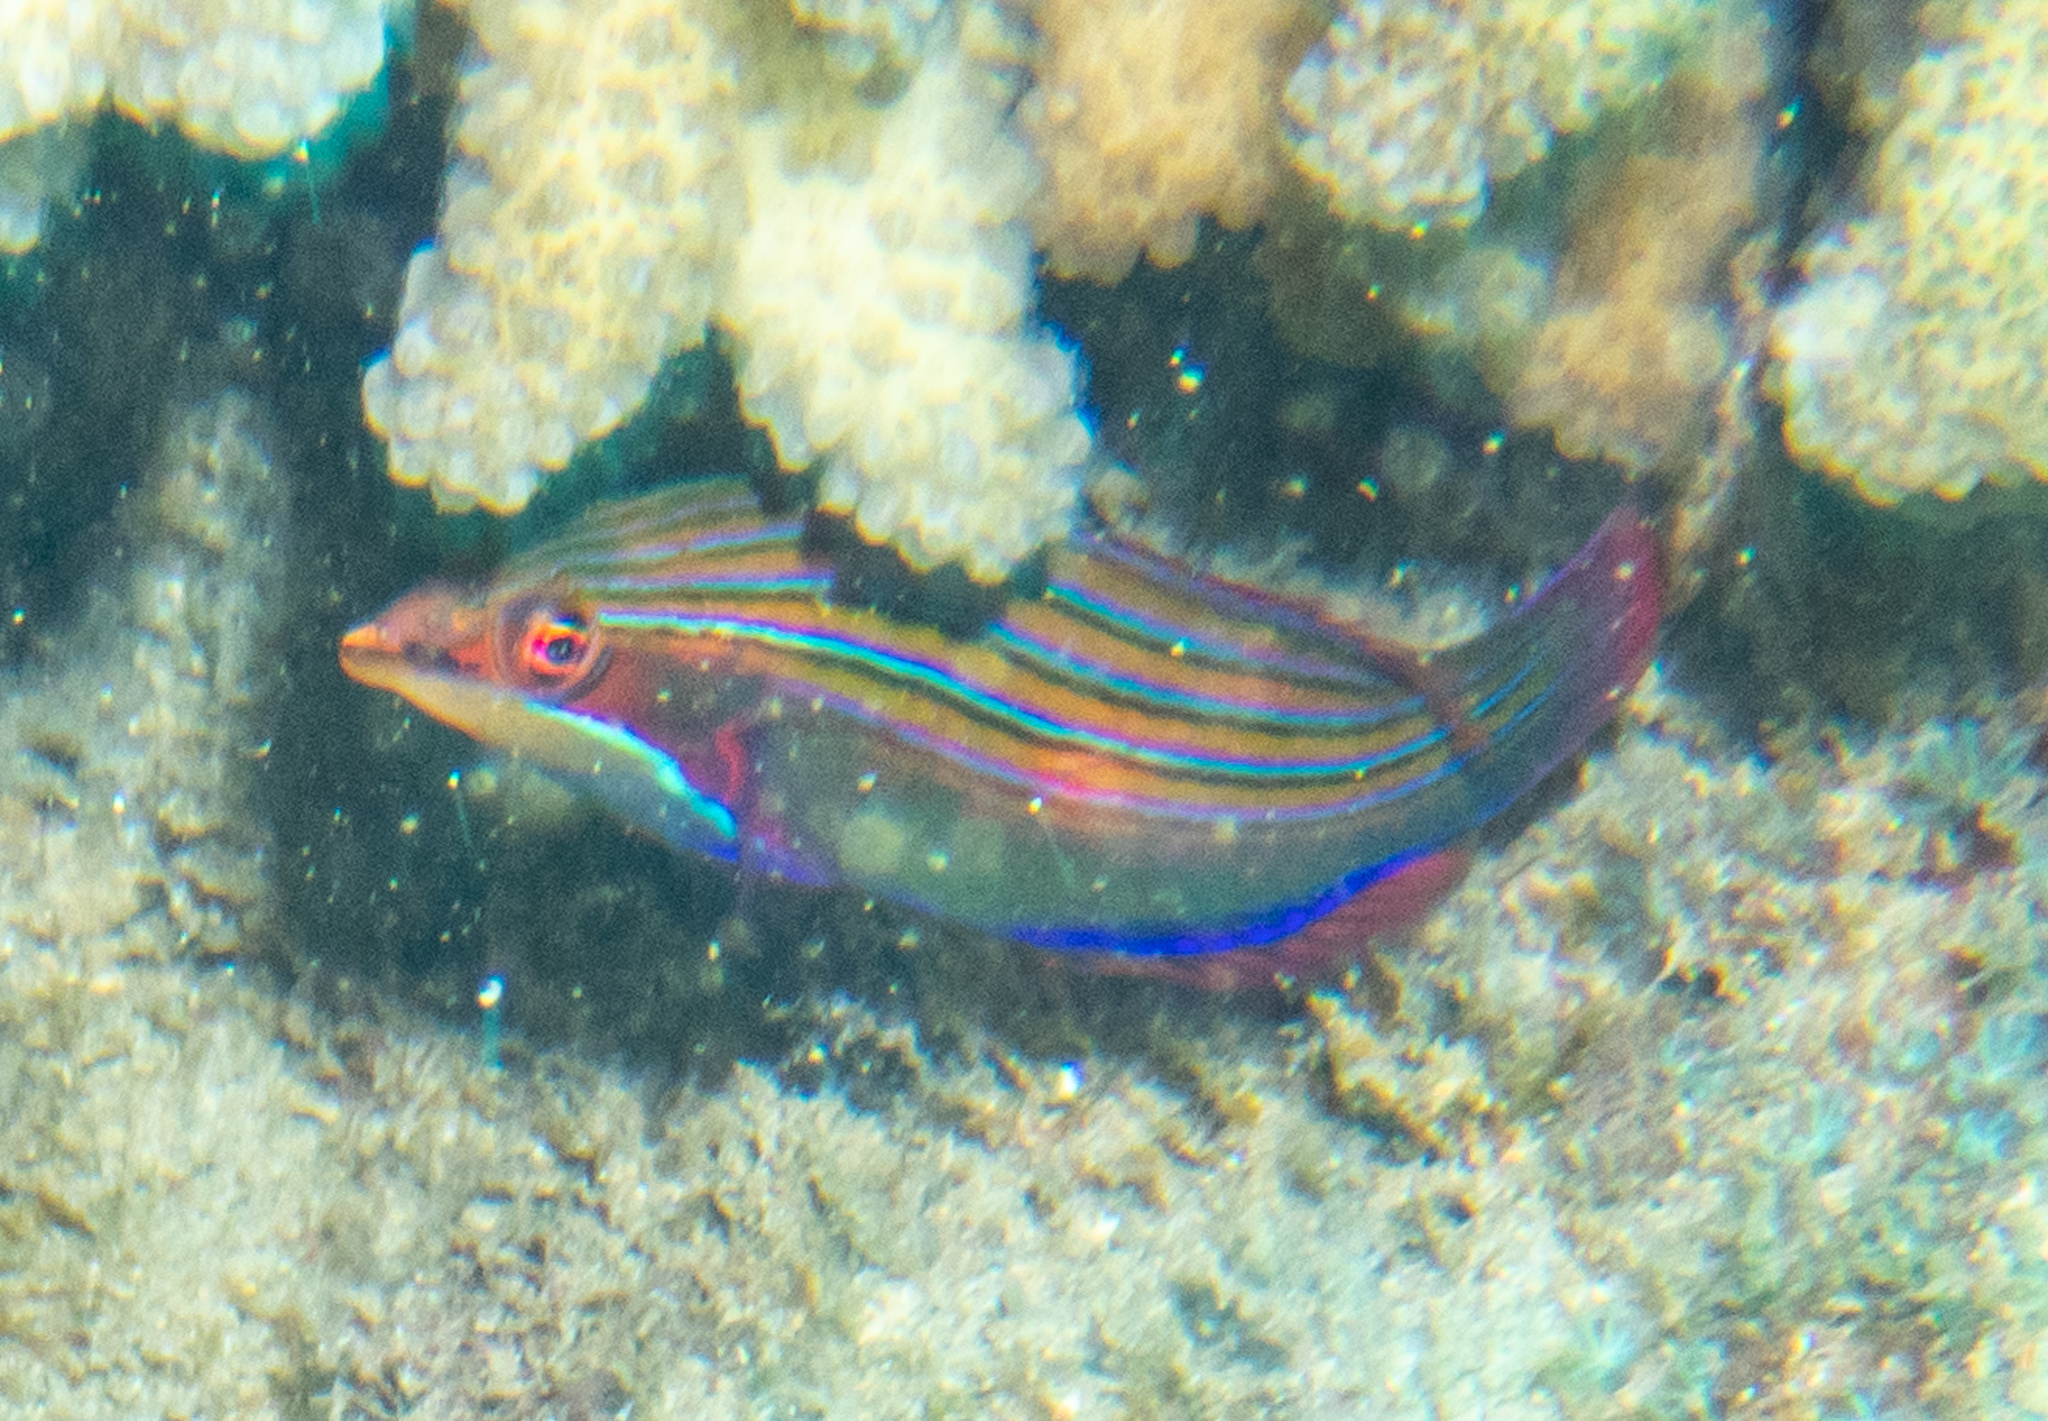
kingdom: Animalia
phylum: Chordata
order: Perciformes
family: Labridae
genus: Pseudocheilinus
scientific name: Pseudocheilinus tetrataenia
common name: Fourline wrasse
